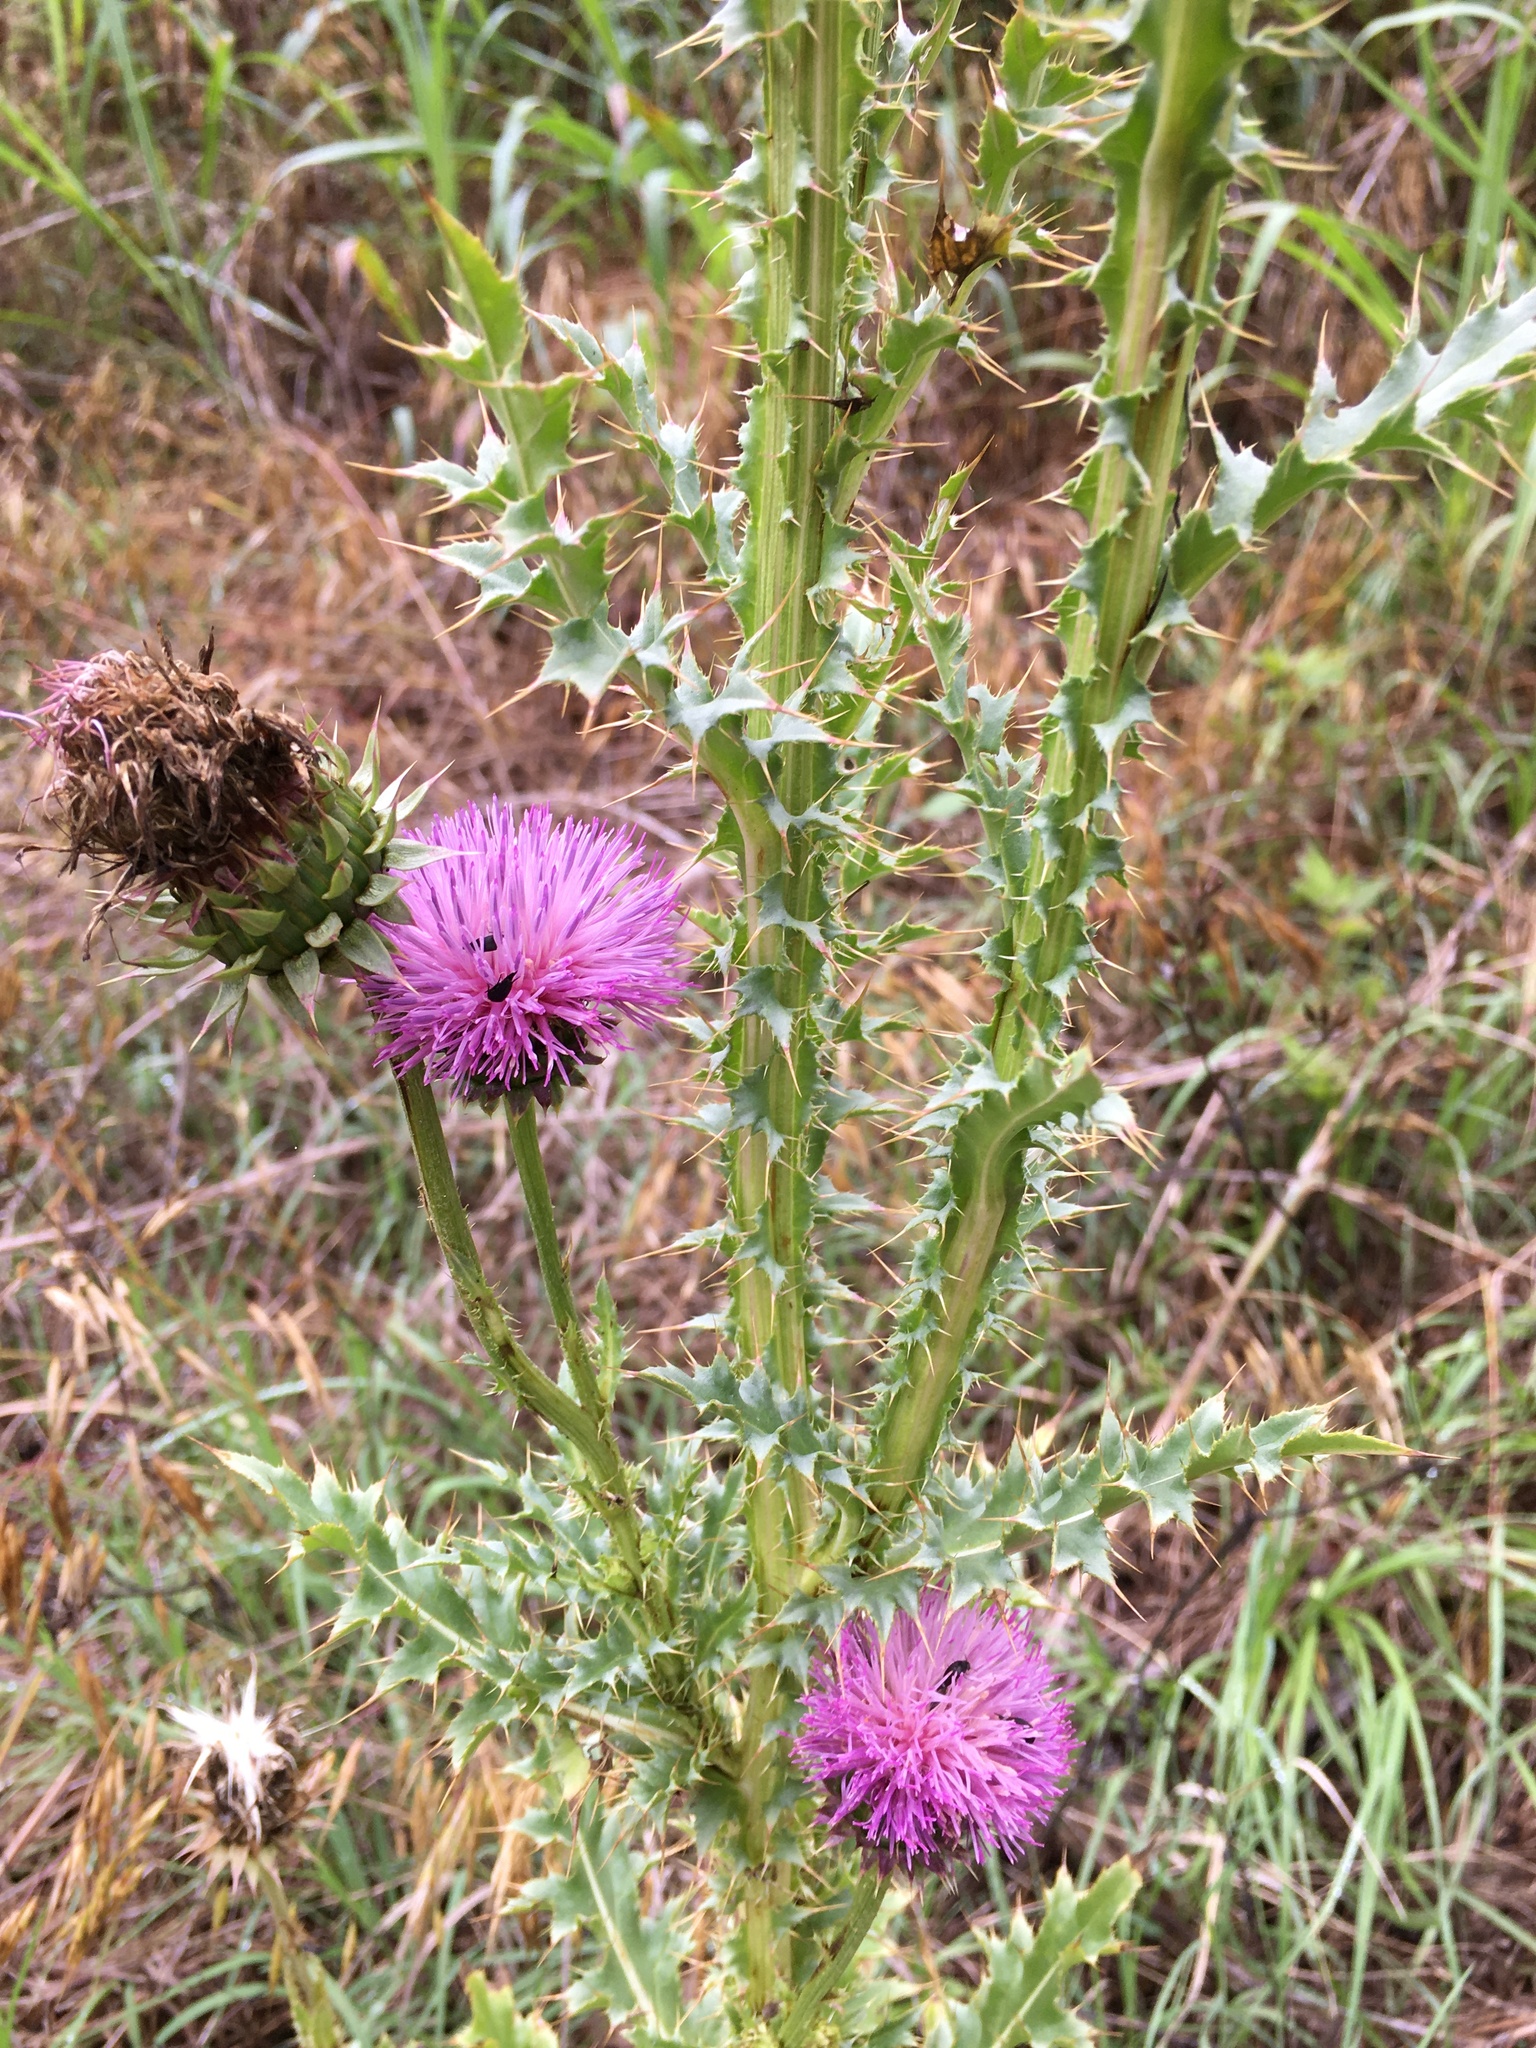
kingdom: Plantae
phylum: Tracheophyta
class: Magnoliopsida
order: Asterales
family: Asteraceae
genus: Carduus
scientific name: Carduus nutans
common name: Musk thistle
